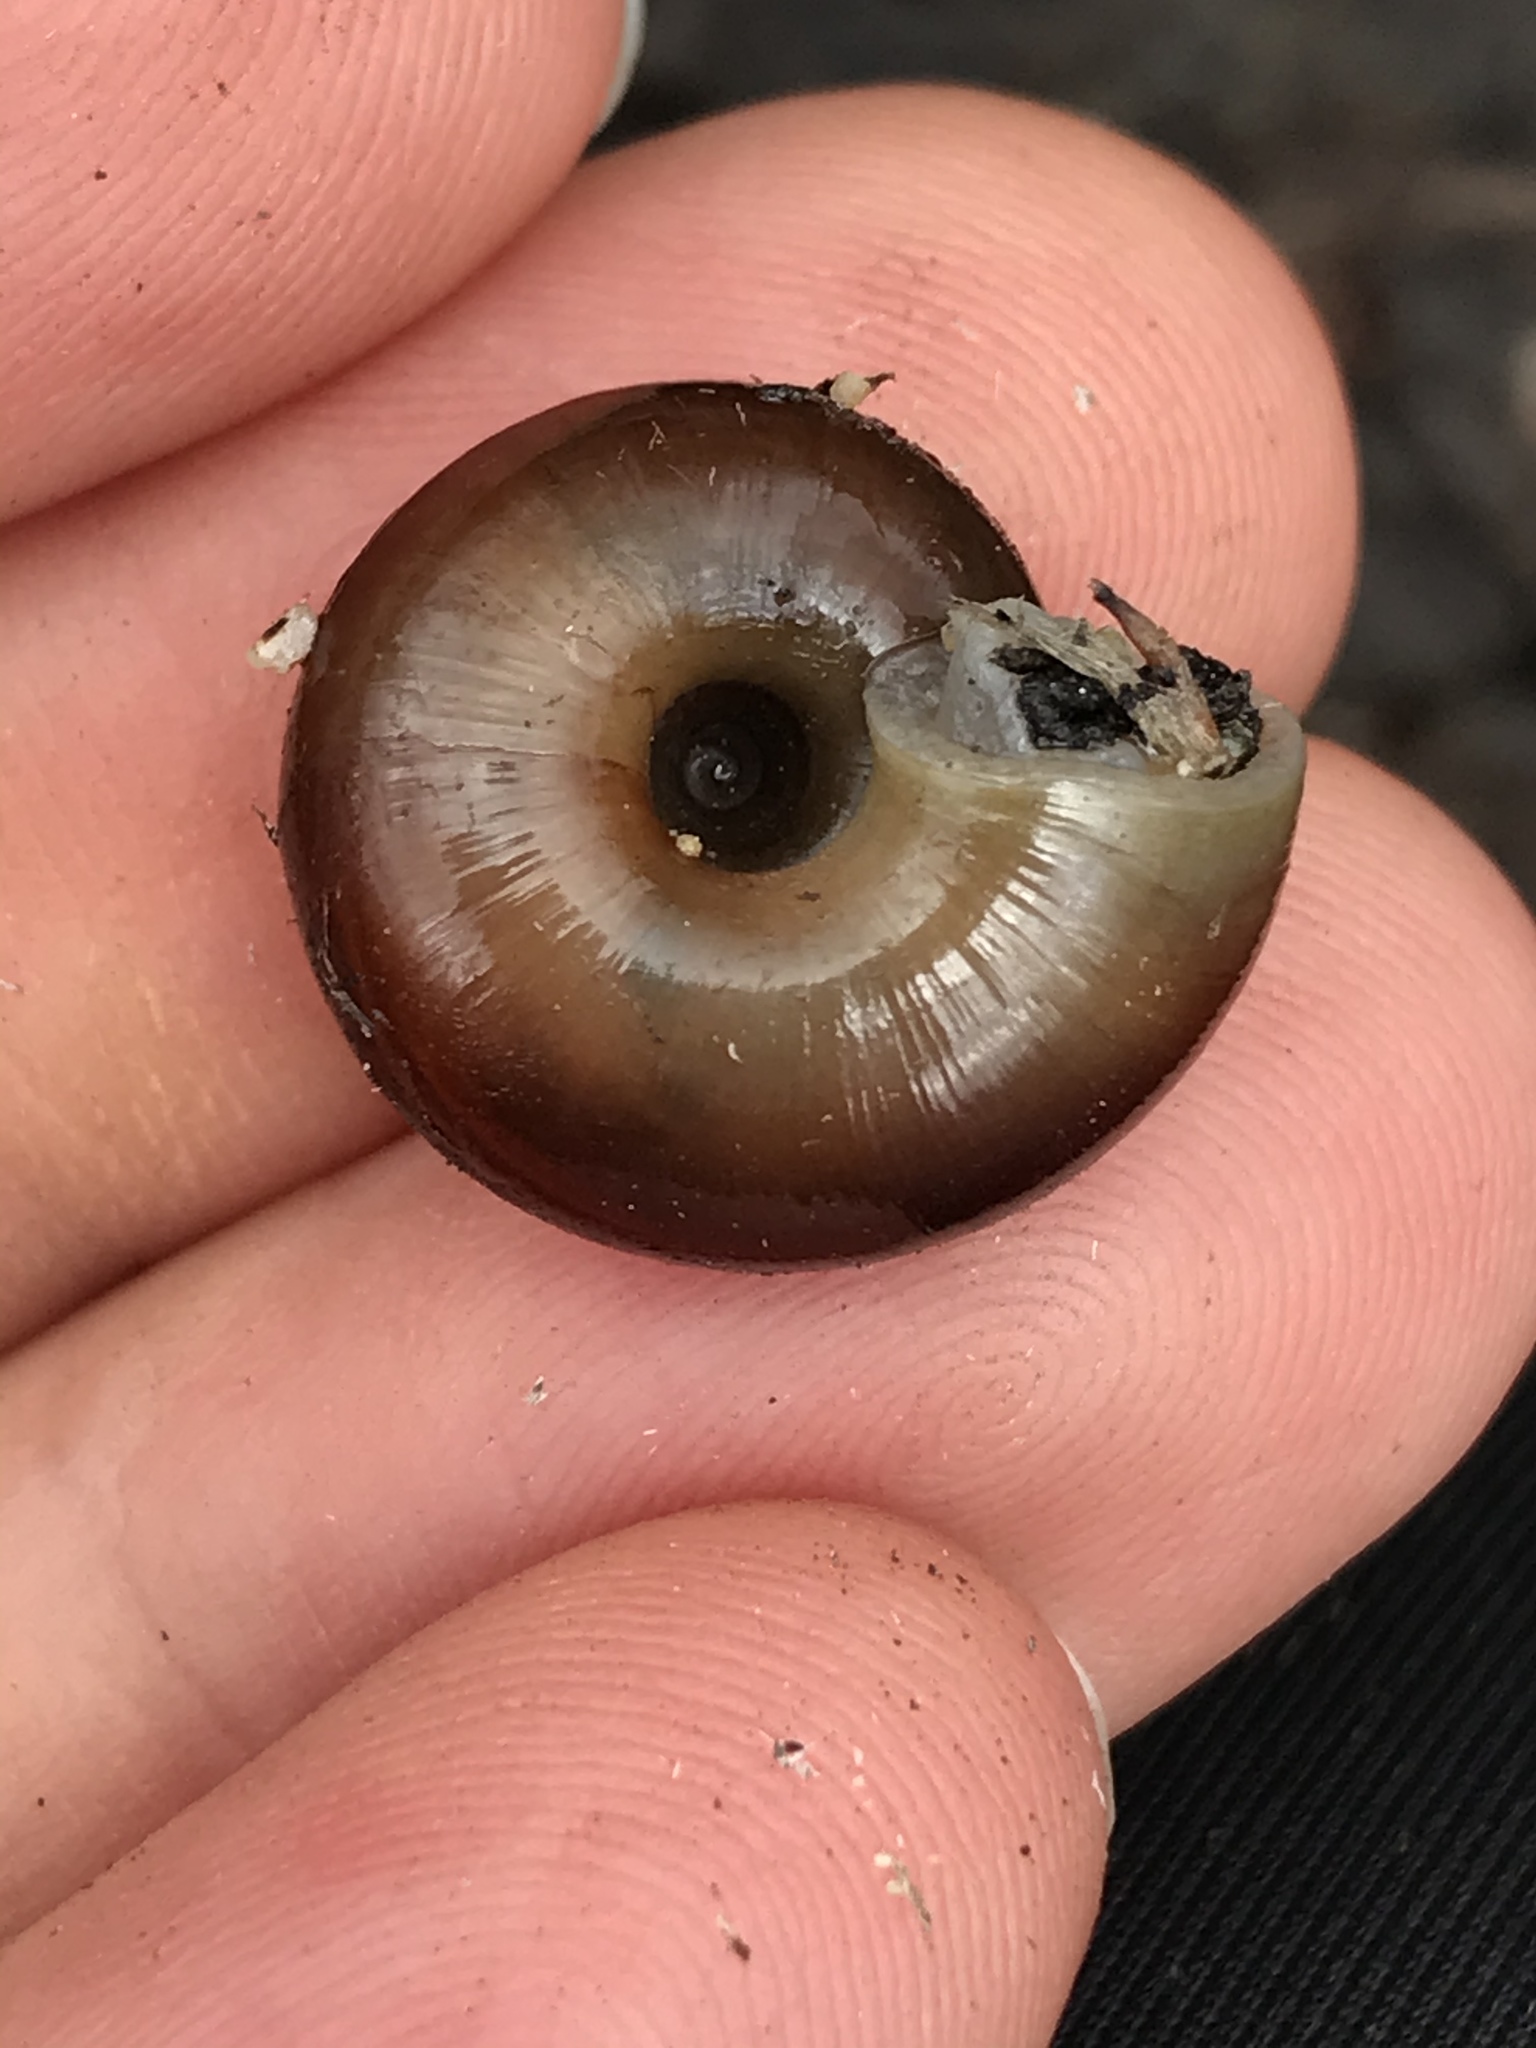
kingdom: Animalia
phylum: Mollusca
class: Gastropoda
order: Stylommatophora
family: Megomphicidae
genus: Glyptostoma
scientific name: Glyptostoma gabrielense
